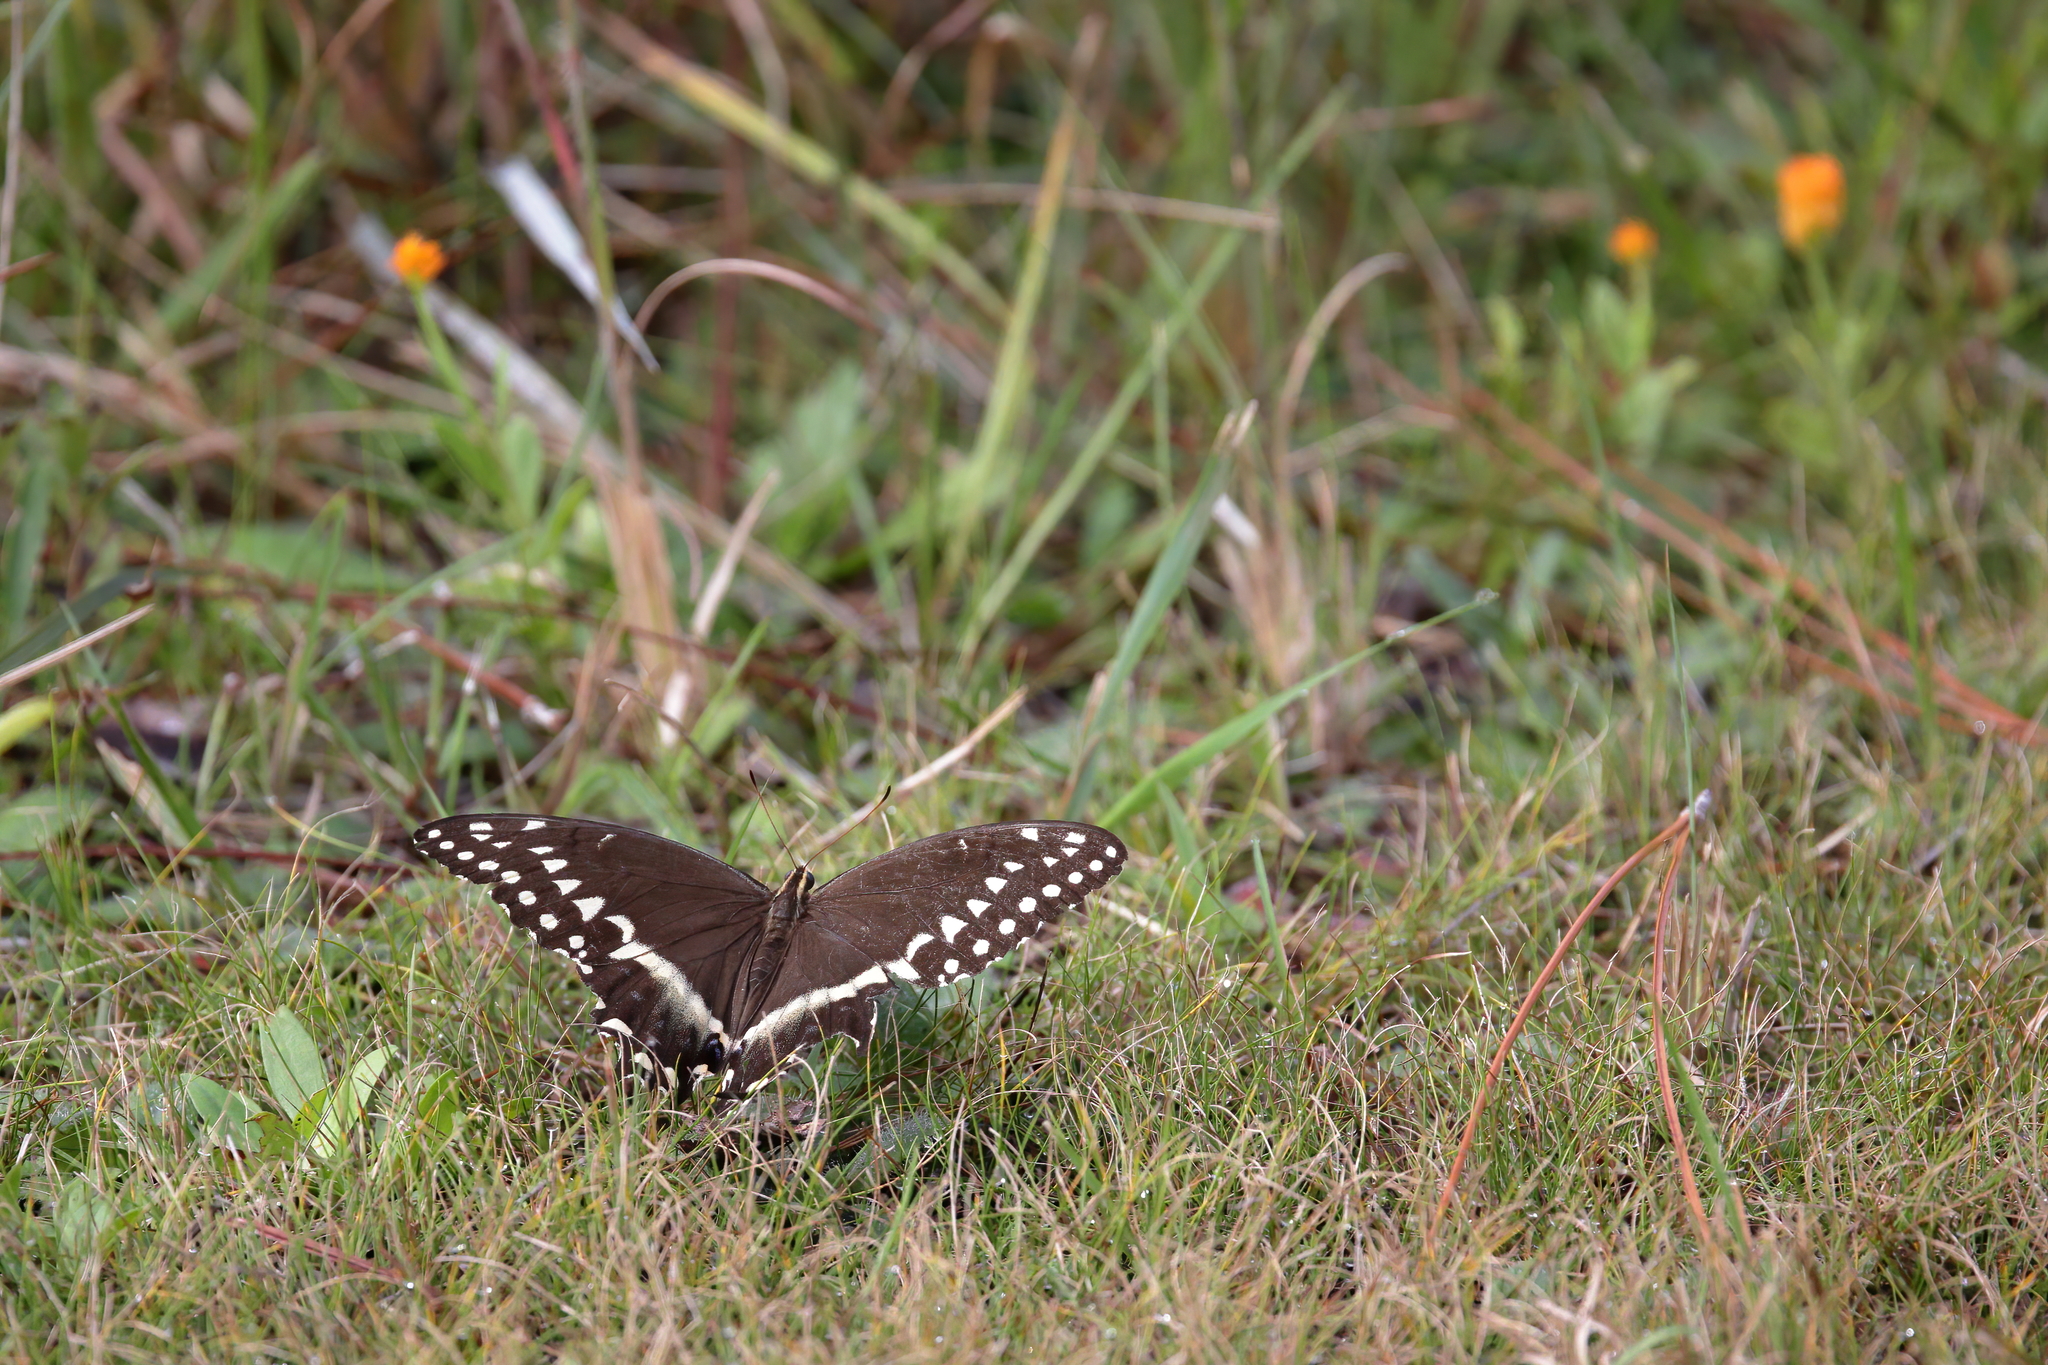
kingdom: Animalia
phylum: Arthropoda
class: Insecta
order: Lepidoptera
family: Papilionidae
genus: Papilio
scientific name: Papilio palamedes
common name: Palamedes swallowtail
